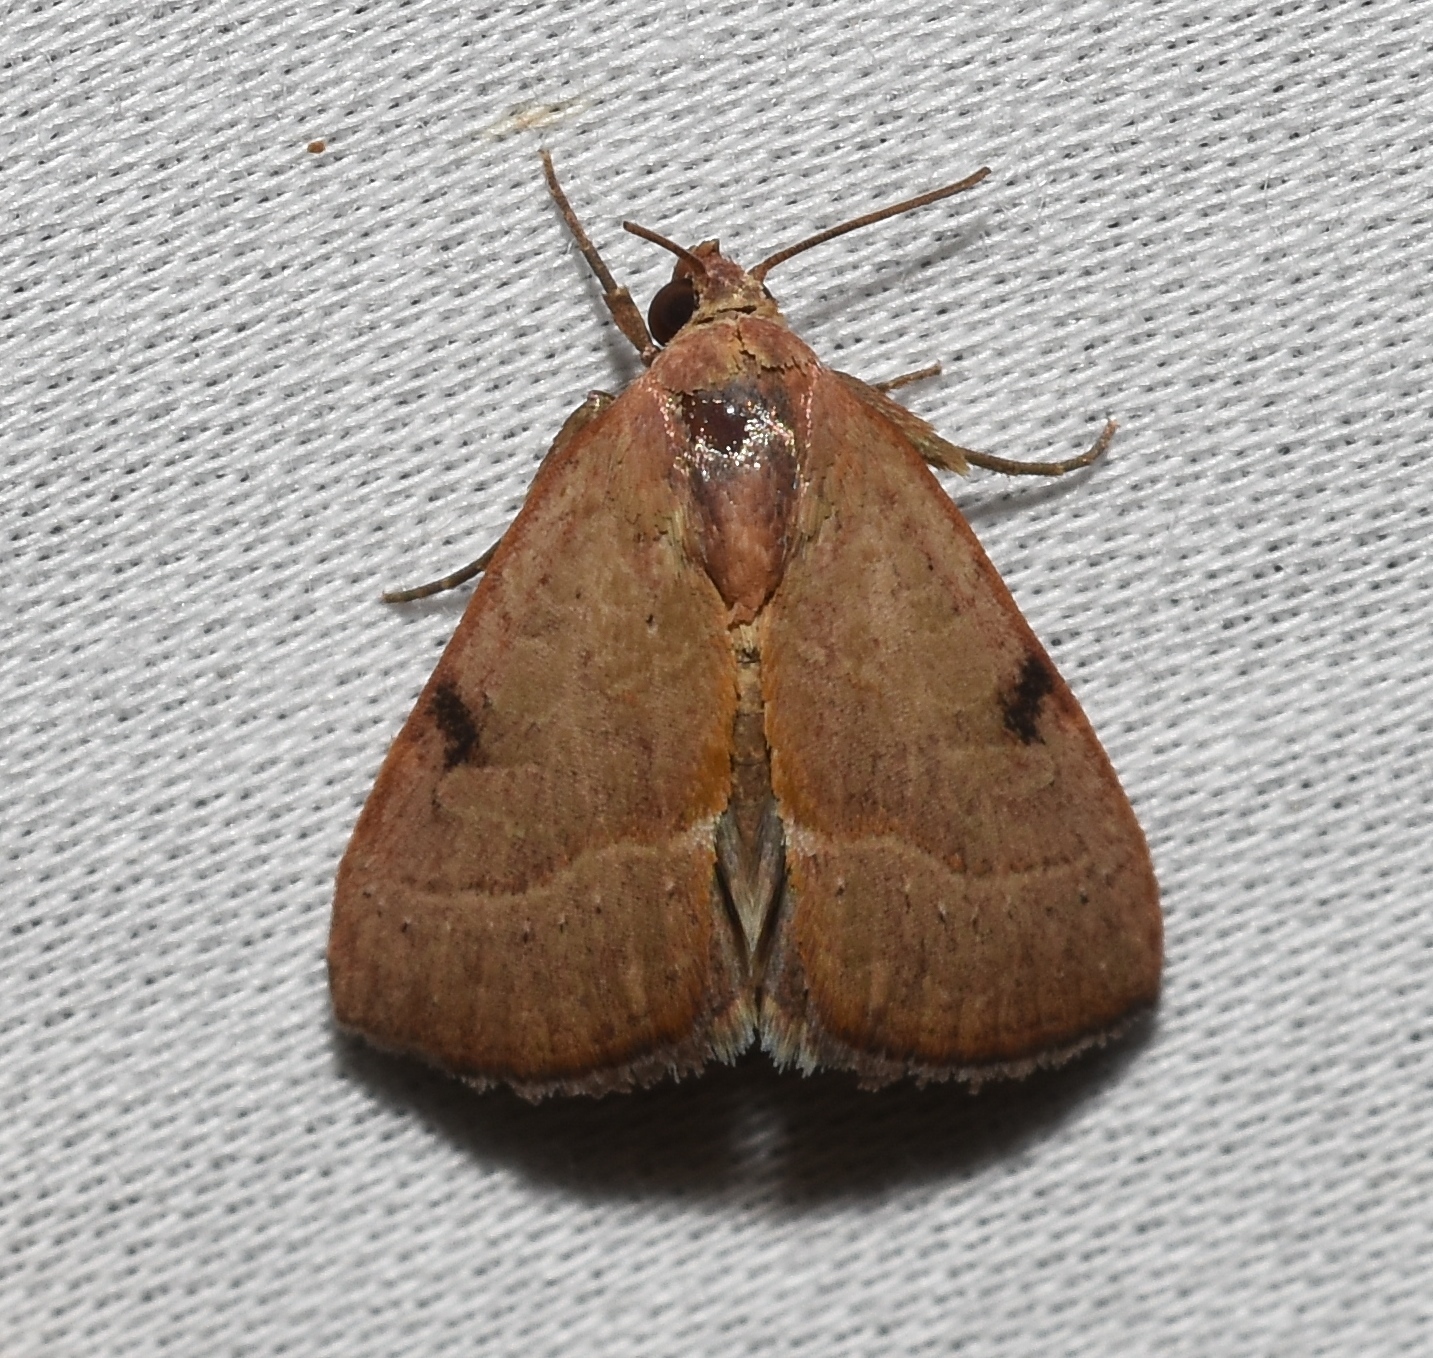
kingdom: Animalia
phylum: Arthropoda
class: Insecta
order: Lepidoptera
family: Noctuidae
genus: Galgula
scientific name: Galgula partita
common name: Wedgeling
